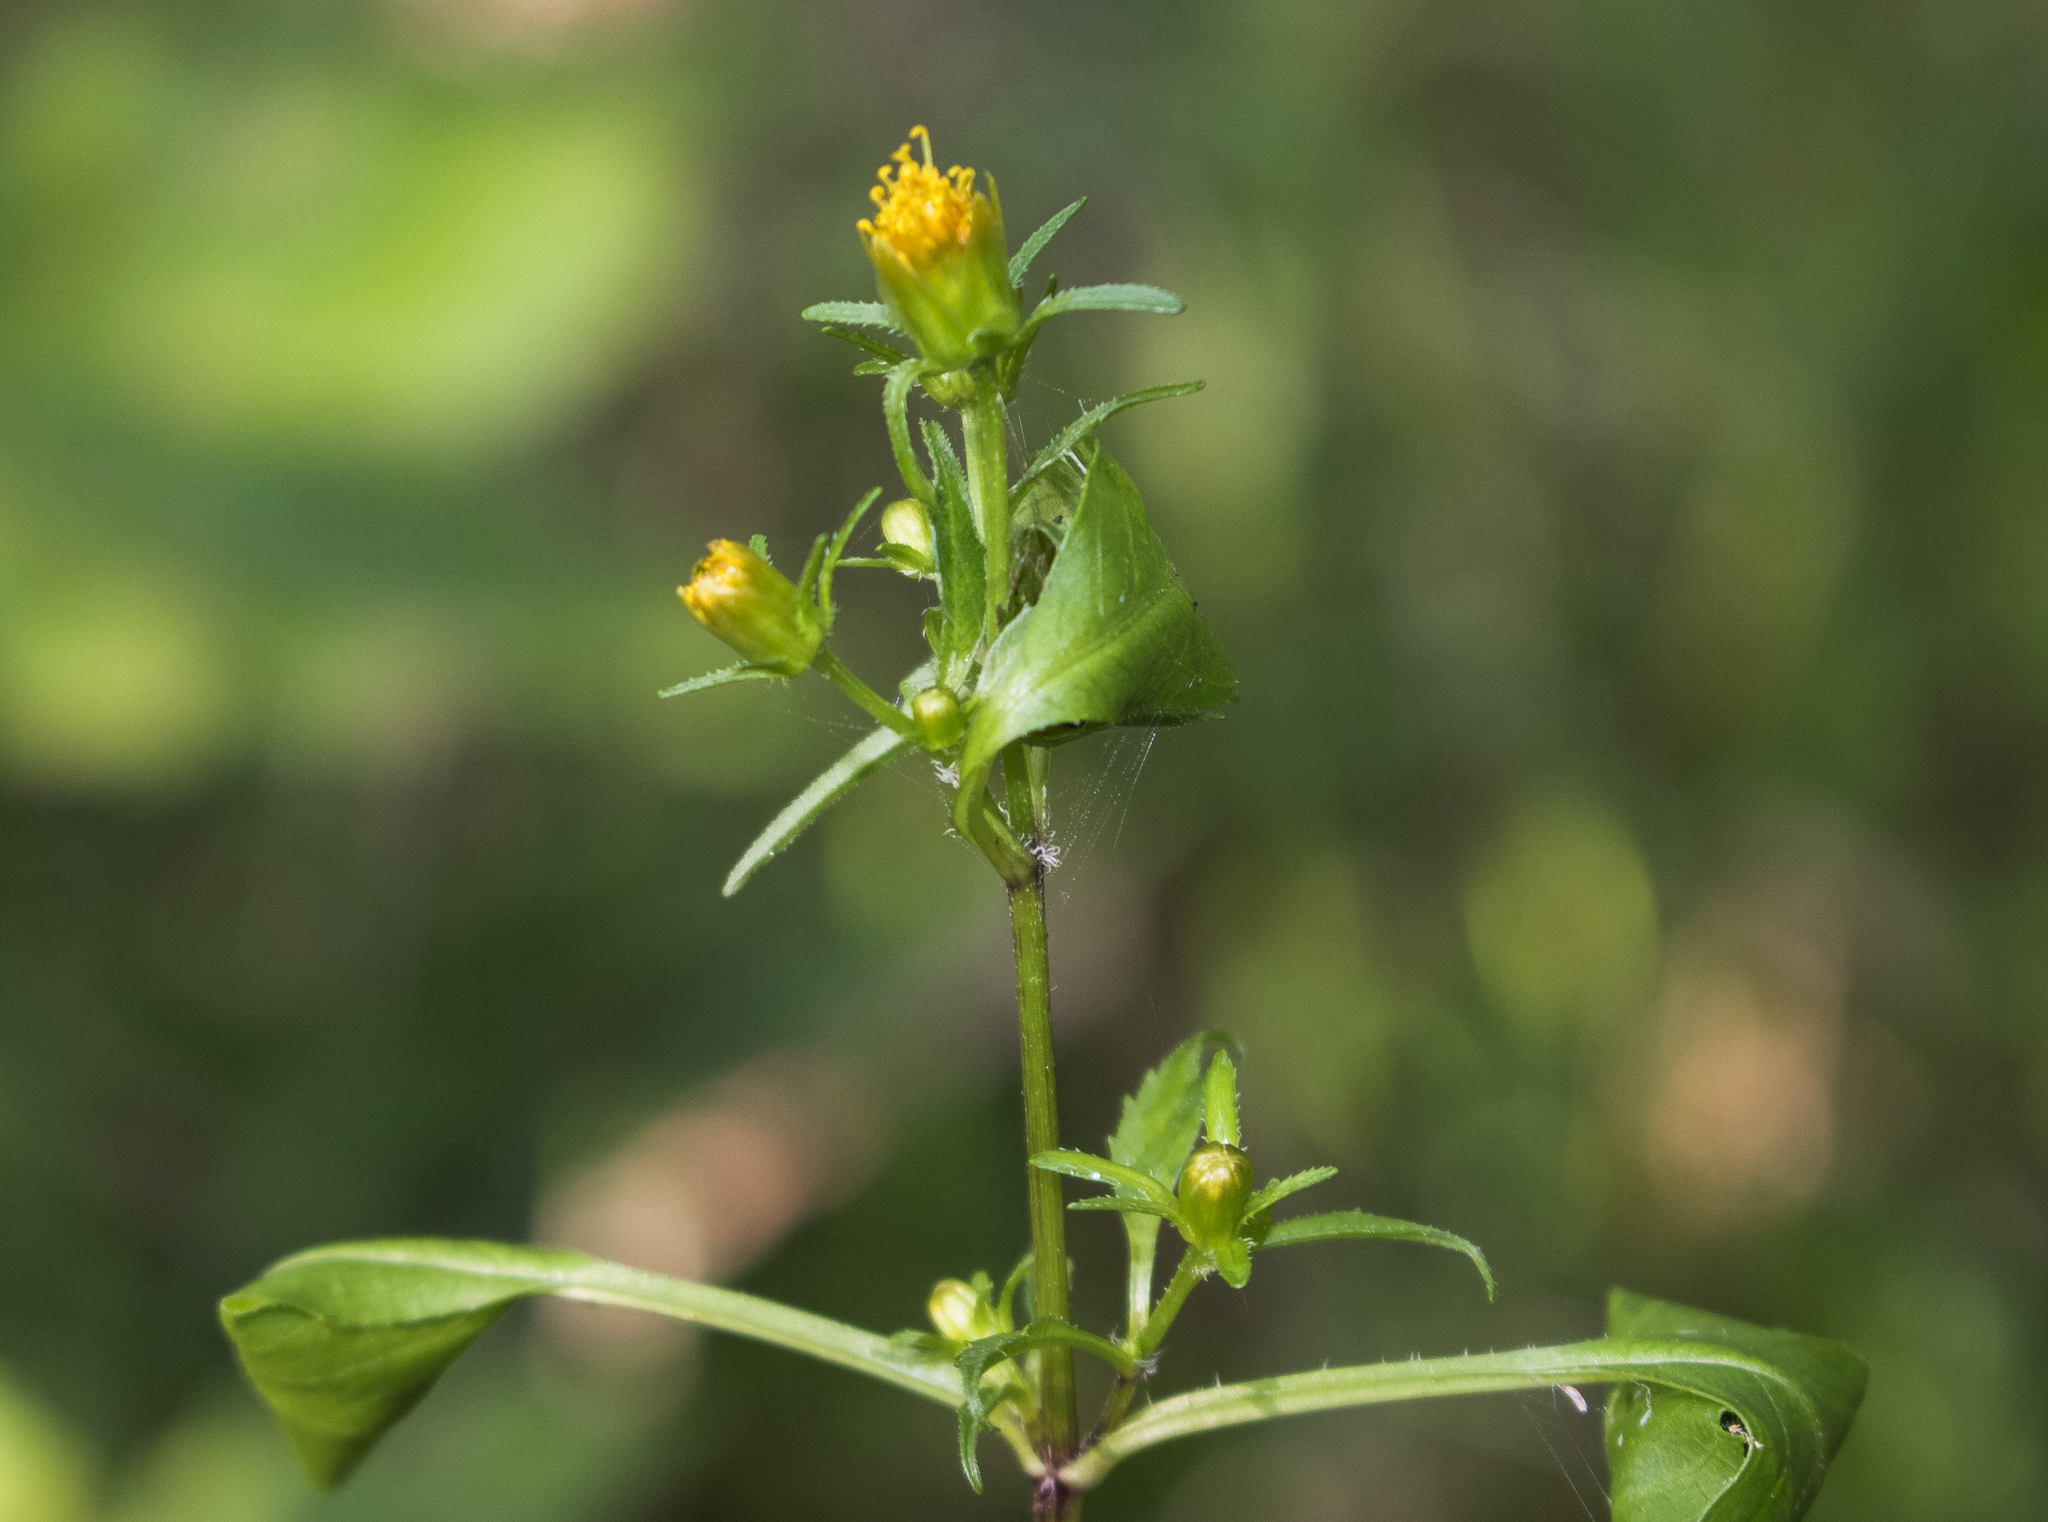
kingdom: Plantae
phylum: Tracheophyta
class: Magnoliopsida
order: Asterales
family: Asteraceae
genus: Bidens
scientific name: Bidens connata
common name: London bur-marigold
